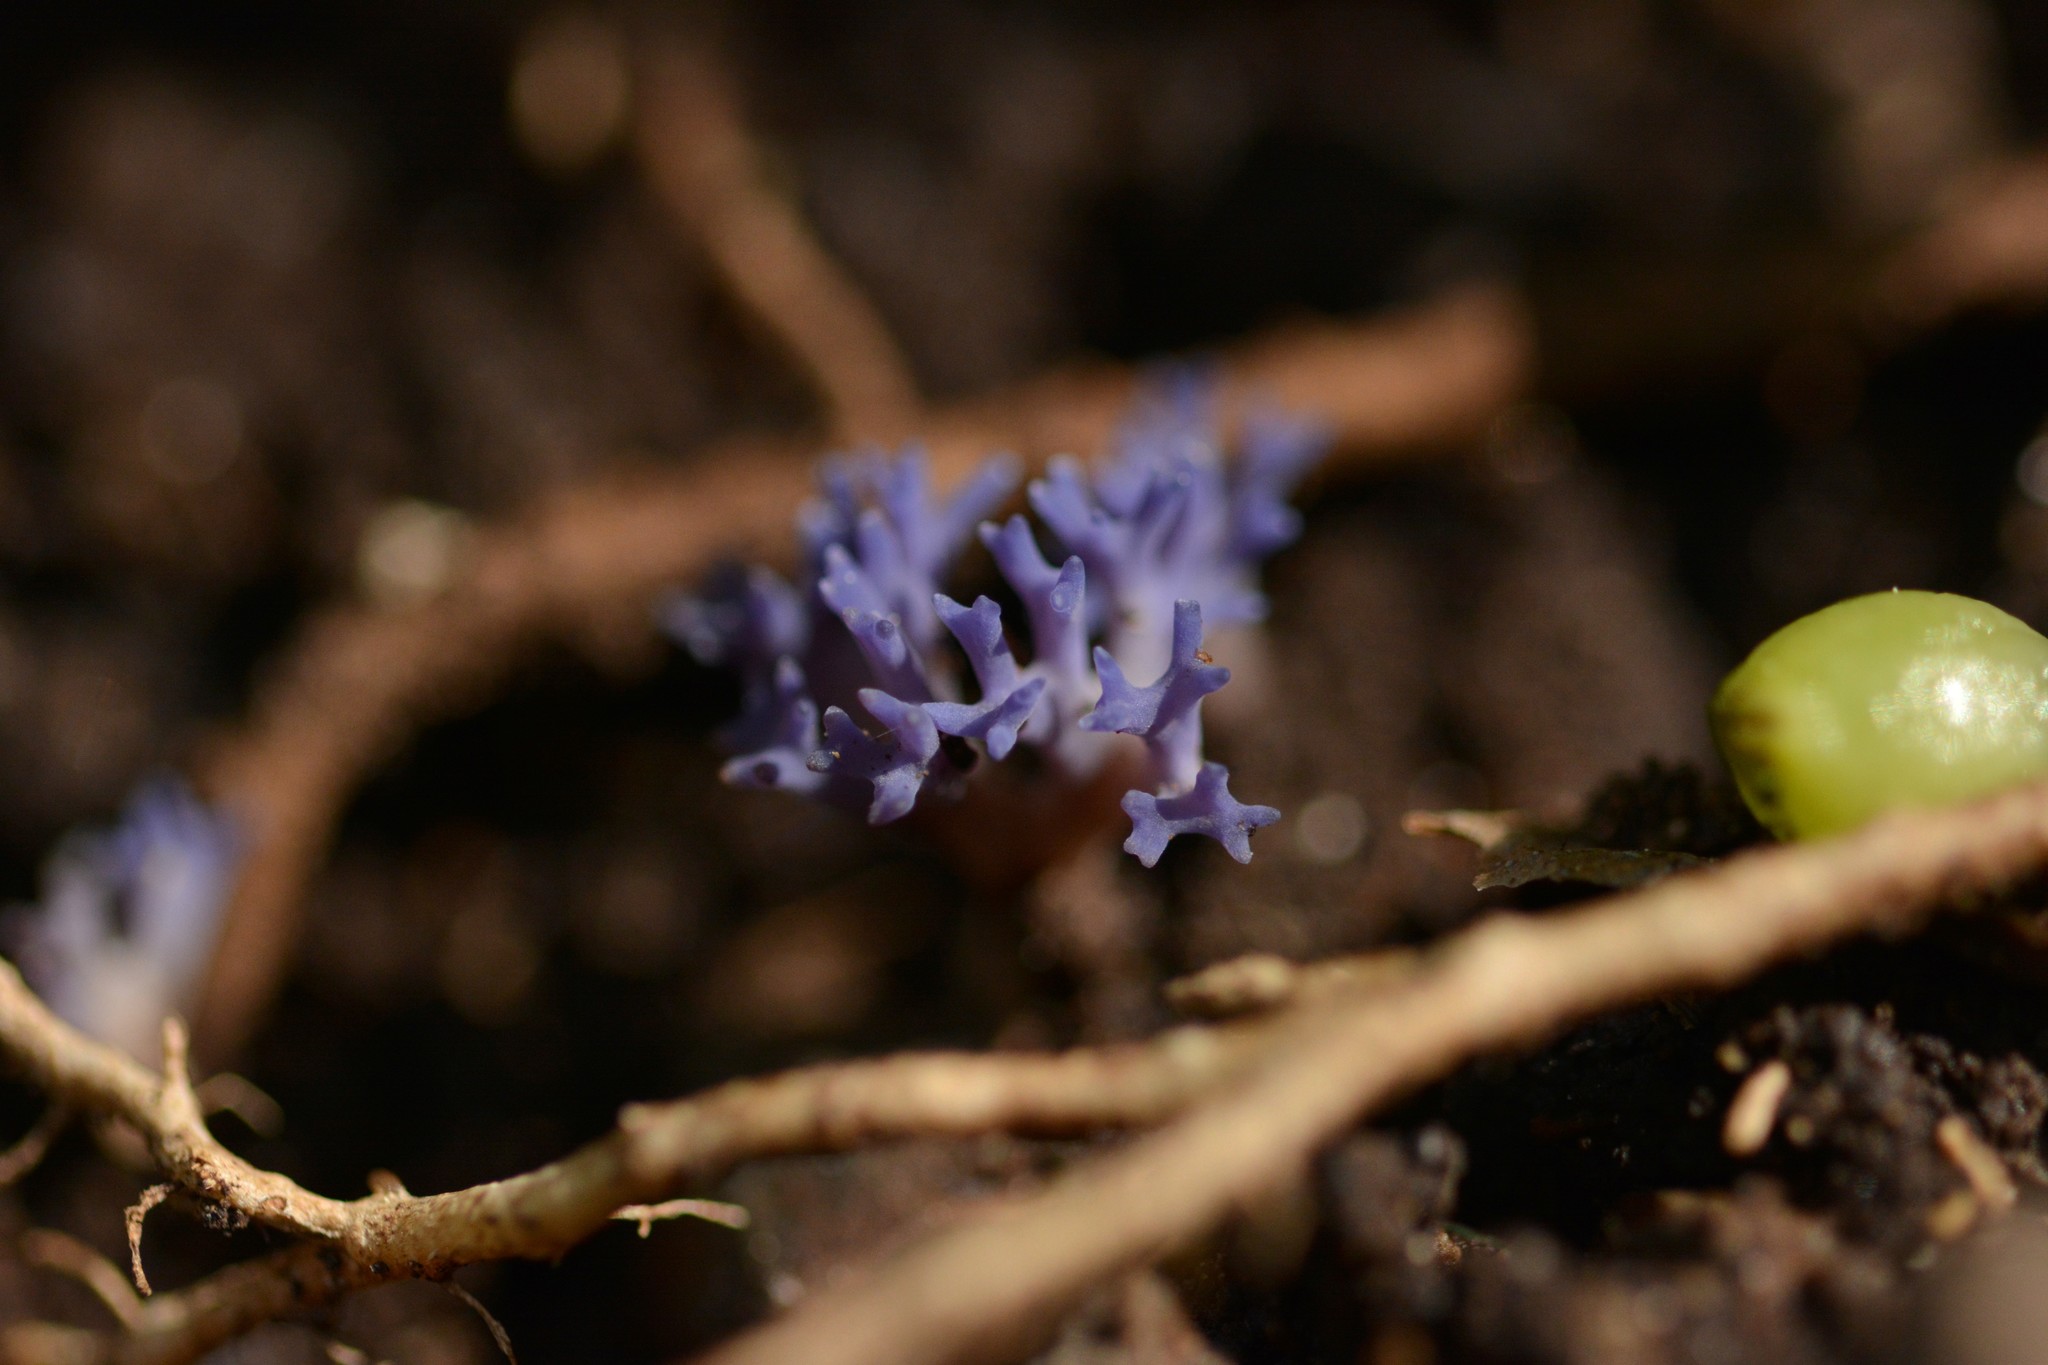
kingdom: Fungi
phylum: Basidiomycota
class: Agaricomycetes
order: Agaricales
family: Clavariaceae
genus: Ramariopsis
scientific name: Ramariopsis pulchella
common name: Lilac coral
